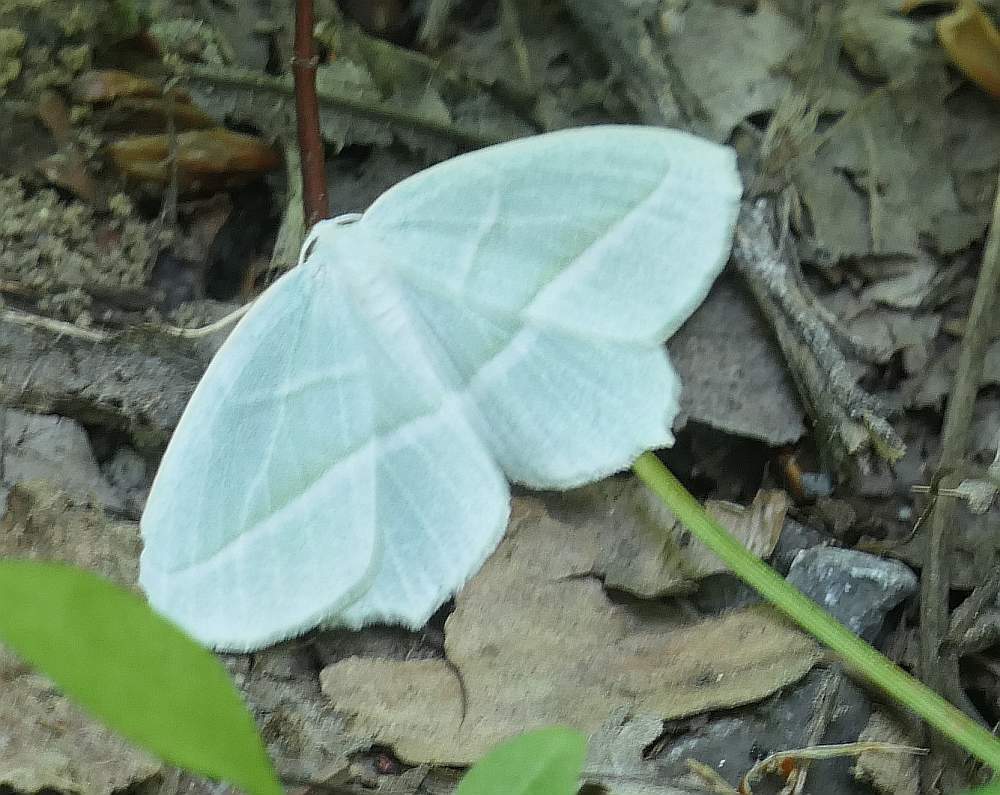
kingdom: Animalia
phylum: Arthropoda
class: Insecta
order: Lepidoptera
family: Geometridae
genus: Campaea
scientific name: Campaea perlata
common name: Fringed looper
